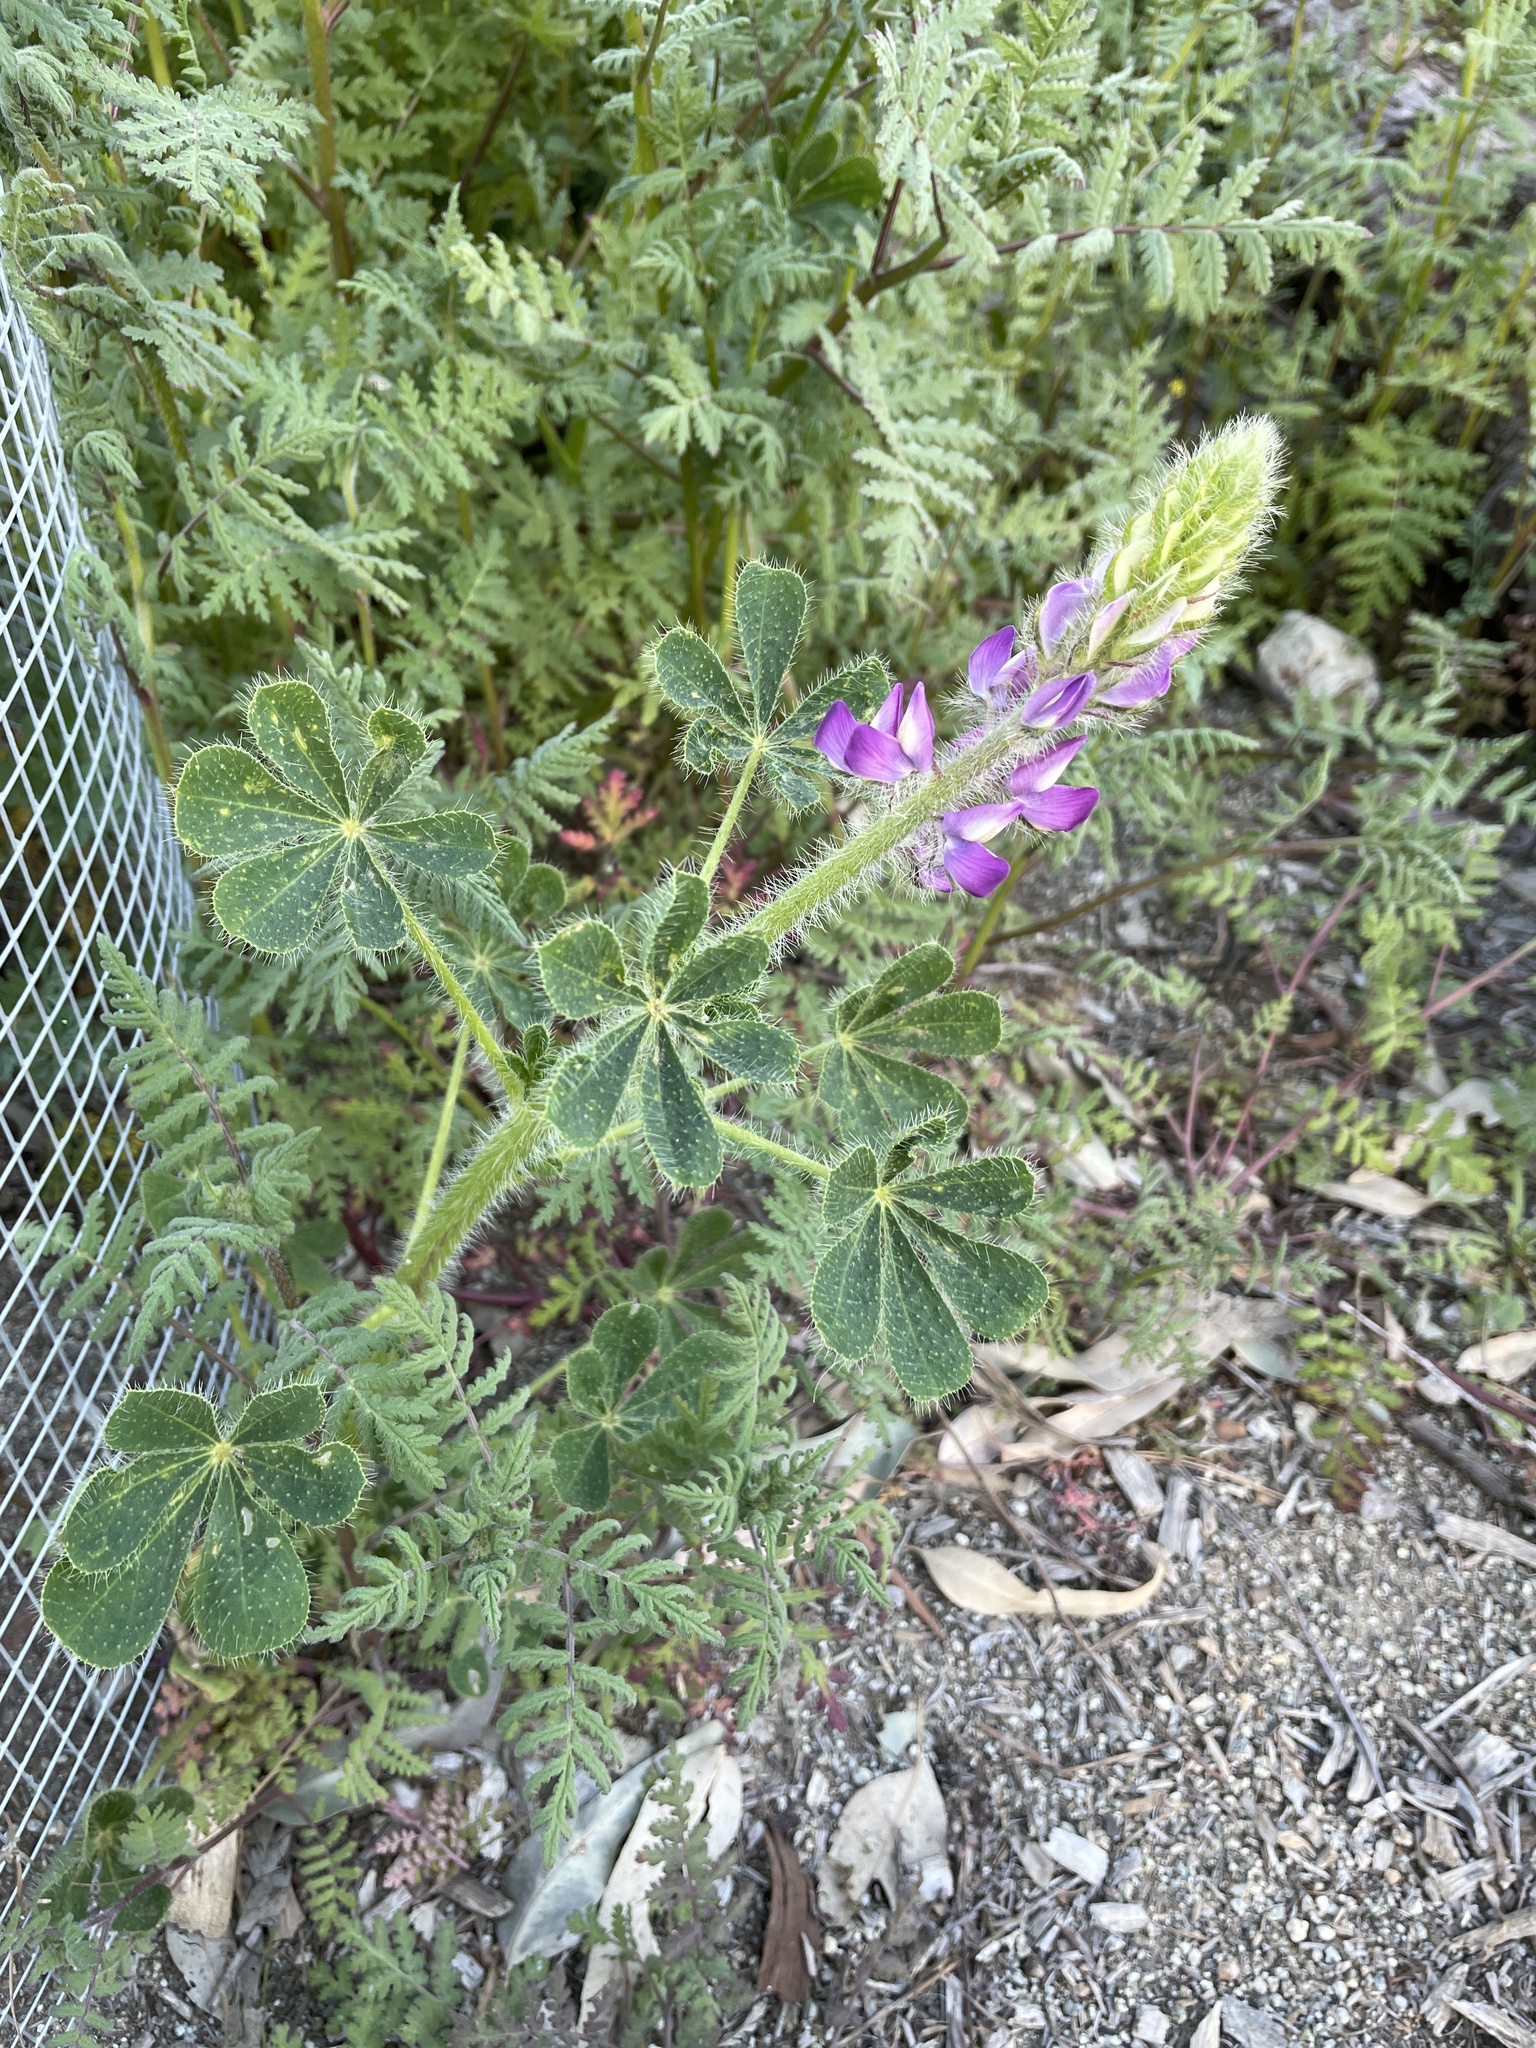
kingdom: Plantae
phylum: Tracheophyta
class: Magnoliopsida
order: Fabales
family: Fabaceae
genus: Lupinus
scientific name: Lupinus hirsutissimus
